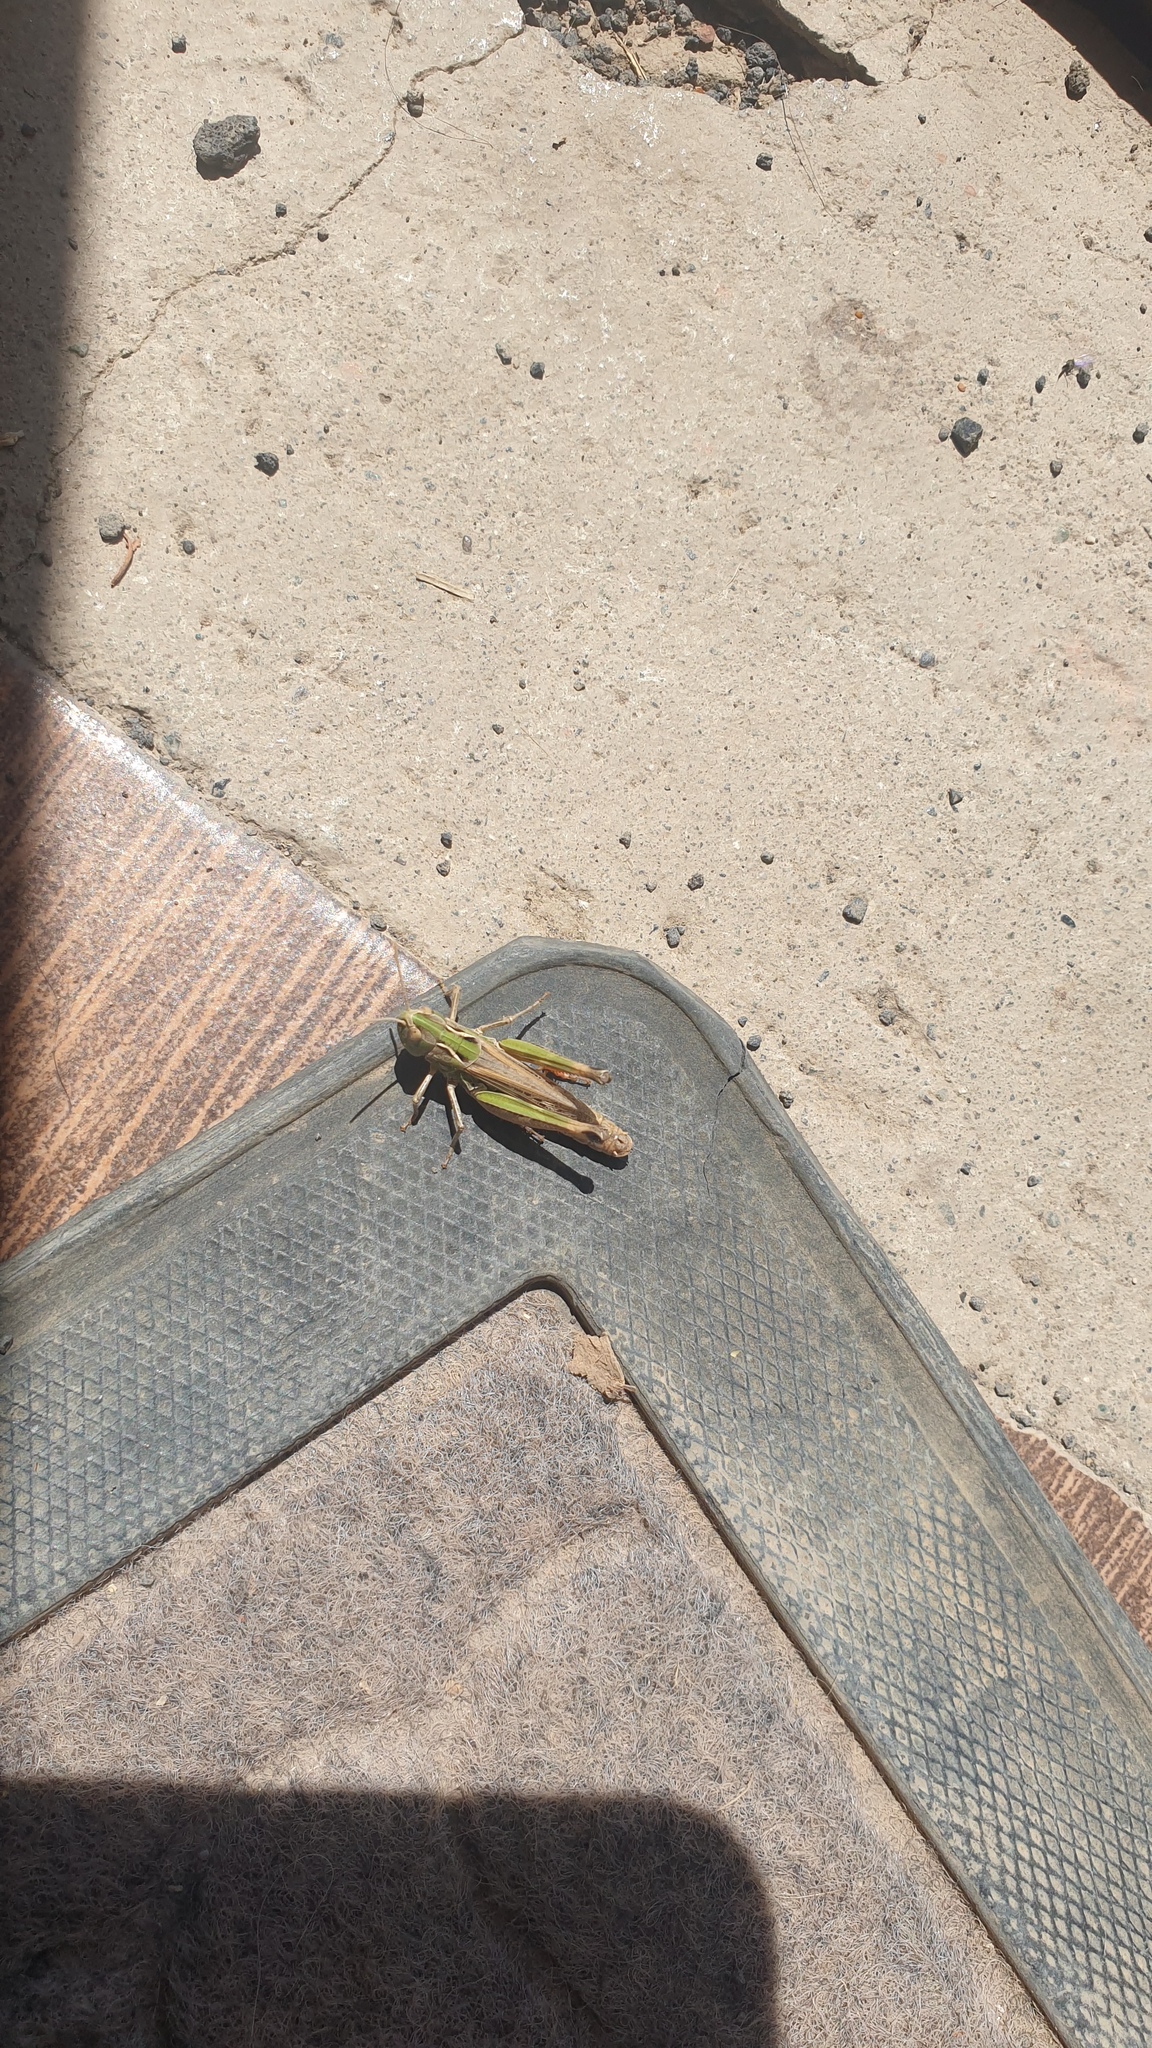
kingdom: Animalia
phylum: Arthropoda
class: Insecta
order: Orthoptera
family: Acrididae
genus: Stenobothrus
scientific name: Stenobothrus caucasicus
